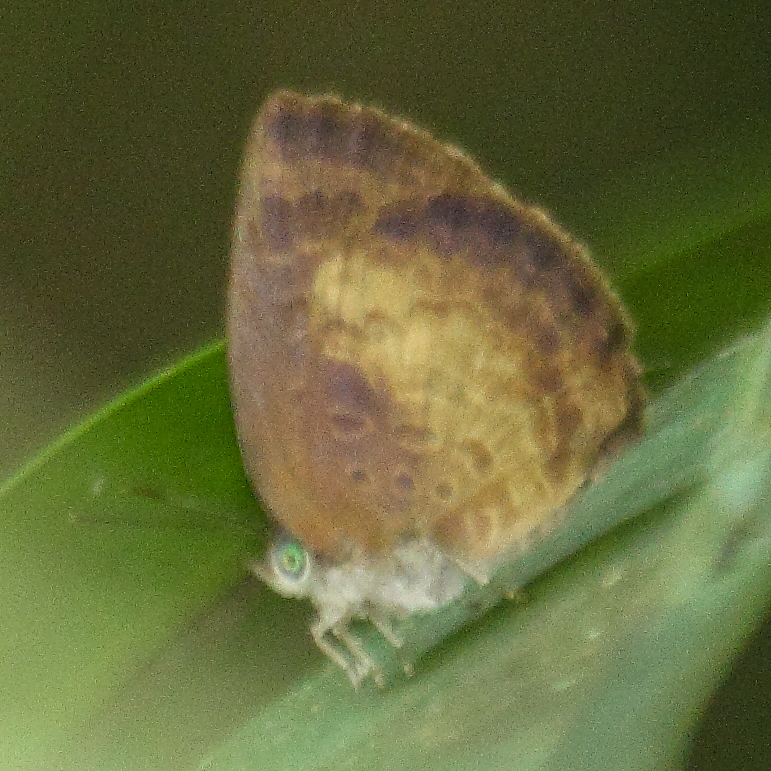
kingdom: Animalia
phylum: Arthropoda
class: Insecta
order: Lepidoptera
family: Lycaenidae
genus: Arhopala
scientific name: Arhopala perimuta
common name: Yellowdisc oakblue
